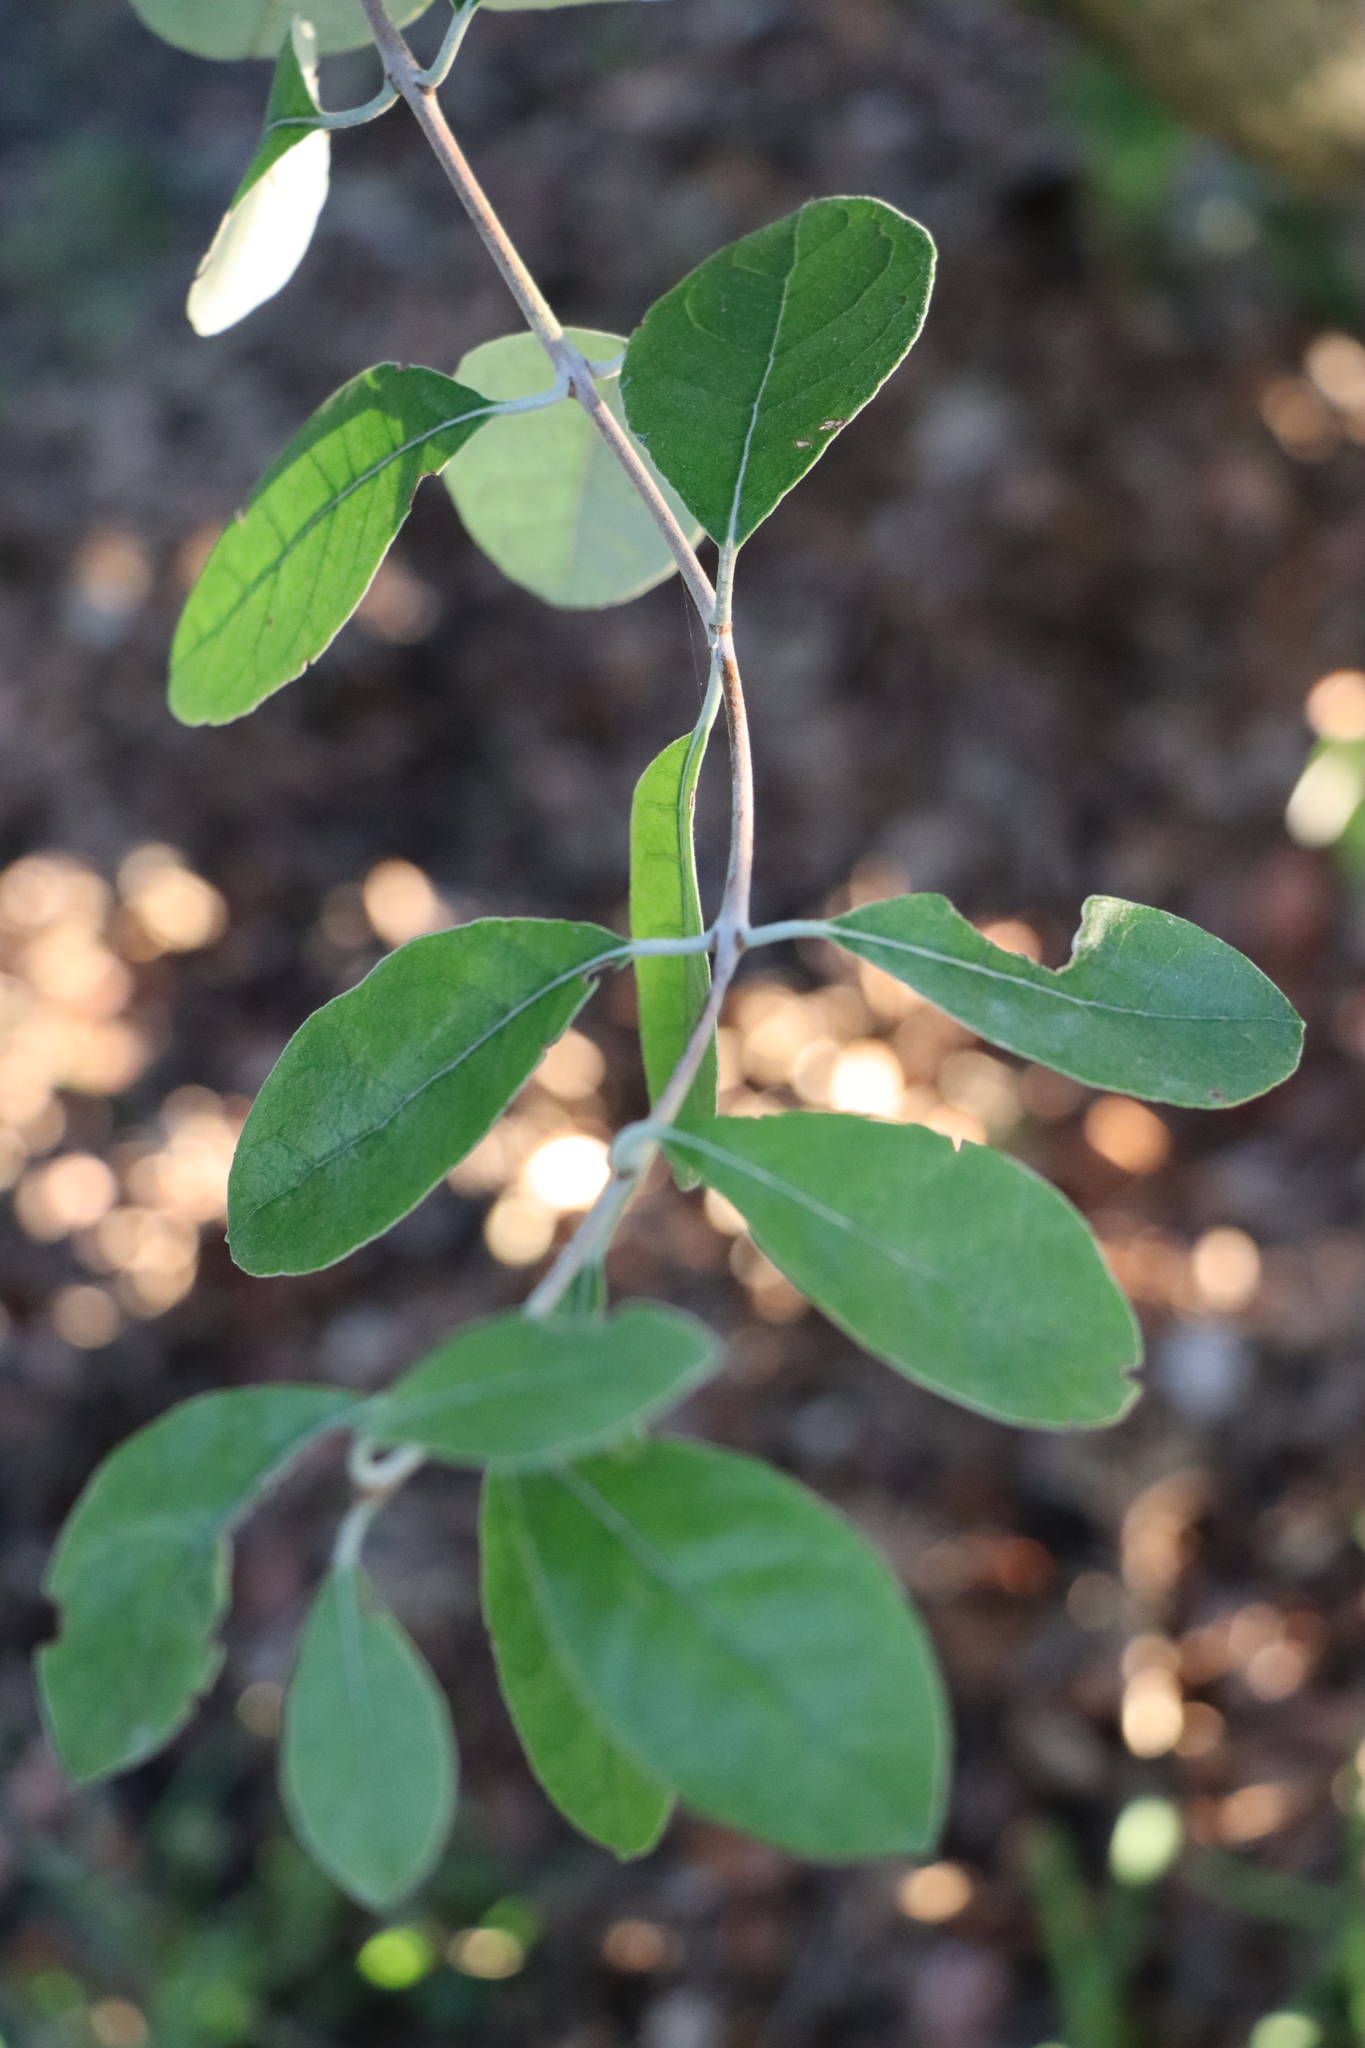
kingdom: Plantae
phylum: Tracheophyta
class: Magnoliopsida
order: Myrtales
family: Myrtaceae
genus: Feijoa
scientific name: Feijoa sellowiana
